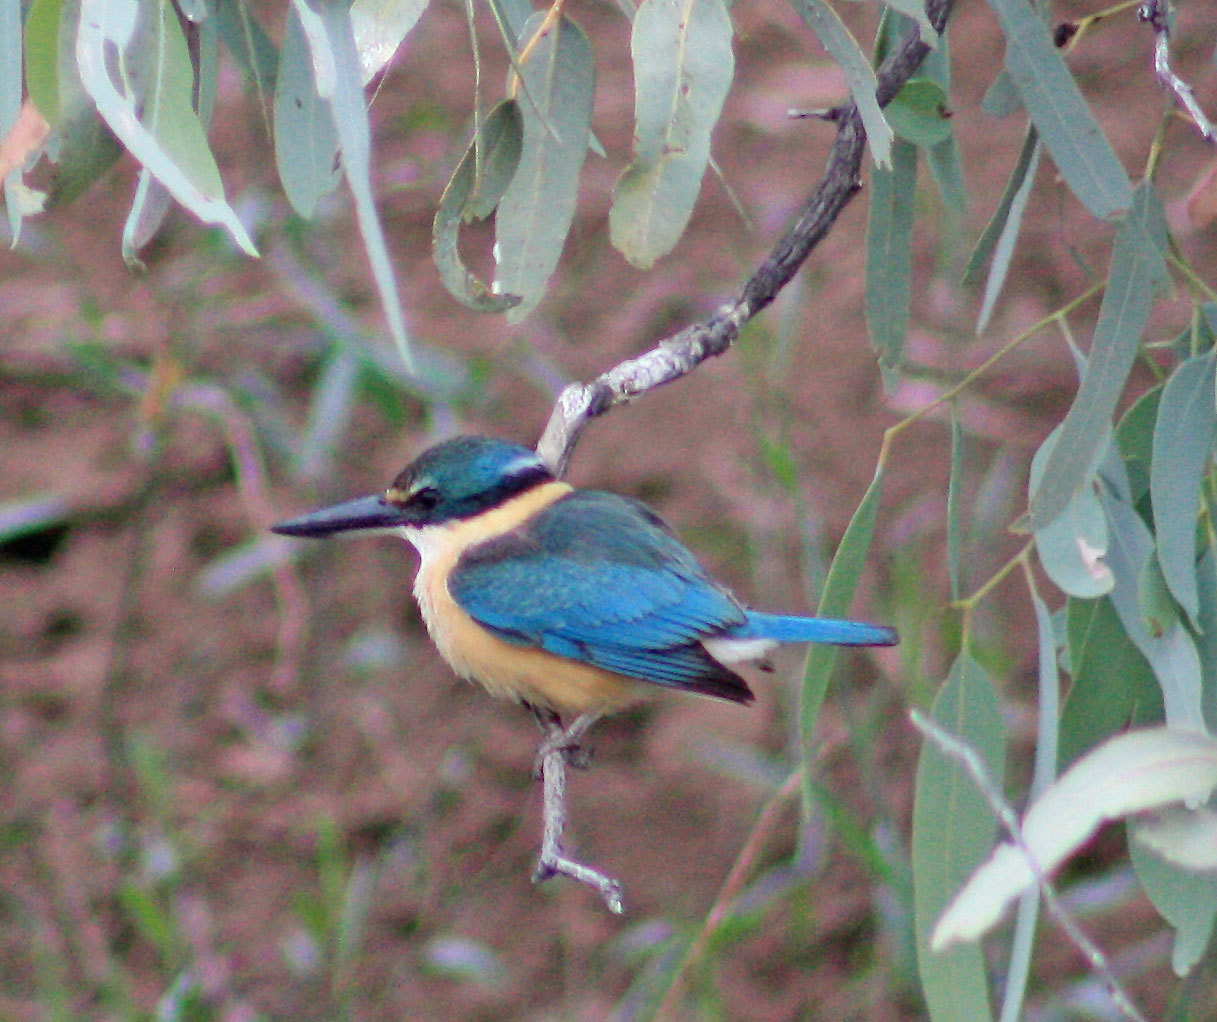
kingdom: Animalia
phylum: Chordata
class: Aves
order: Coraciiformes
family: Alcedinidae
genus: Todiramphus
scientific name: Todiramphus sanctus
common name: Sacred kingfisher
